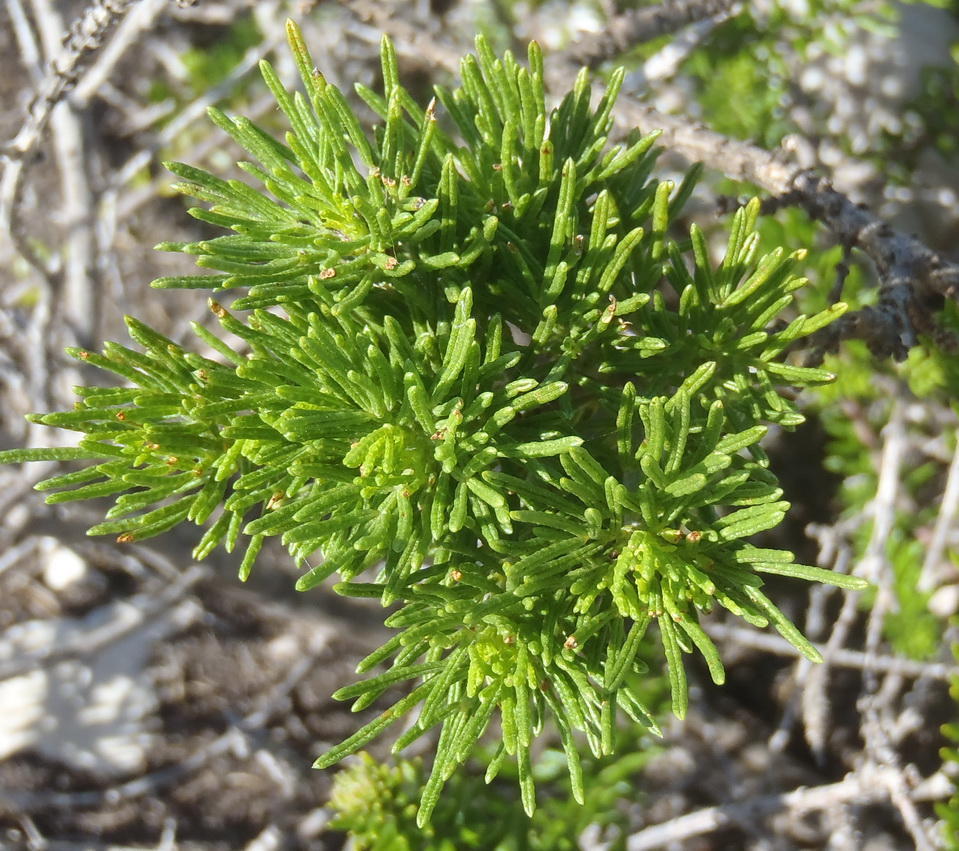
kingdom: Plantae
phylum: Tracheophyta
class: Magnoliopsida
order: Fabales
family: Fabaceae
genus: Psoralea
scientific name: Psoralea vanberkelae
